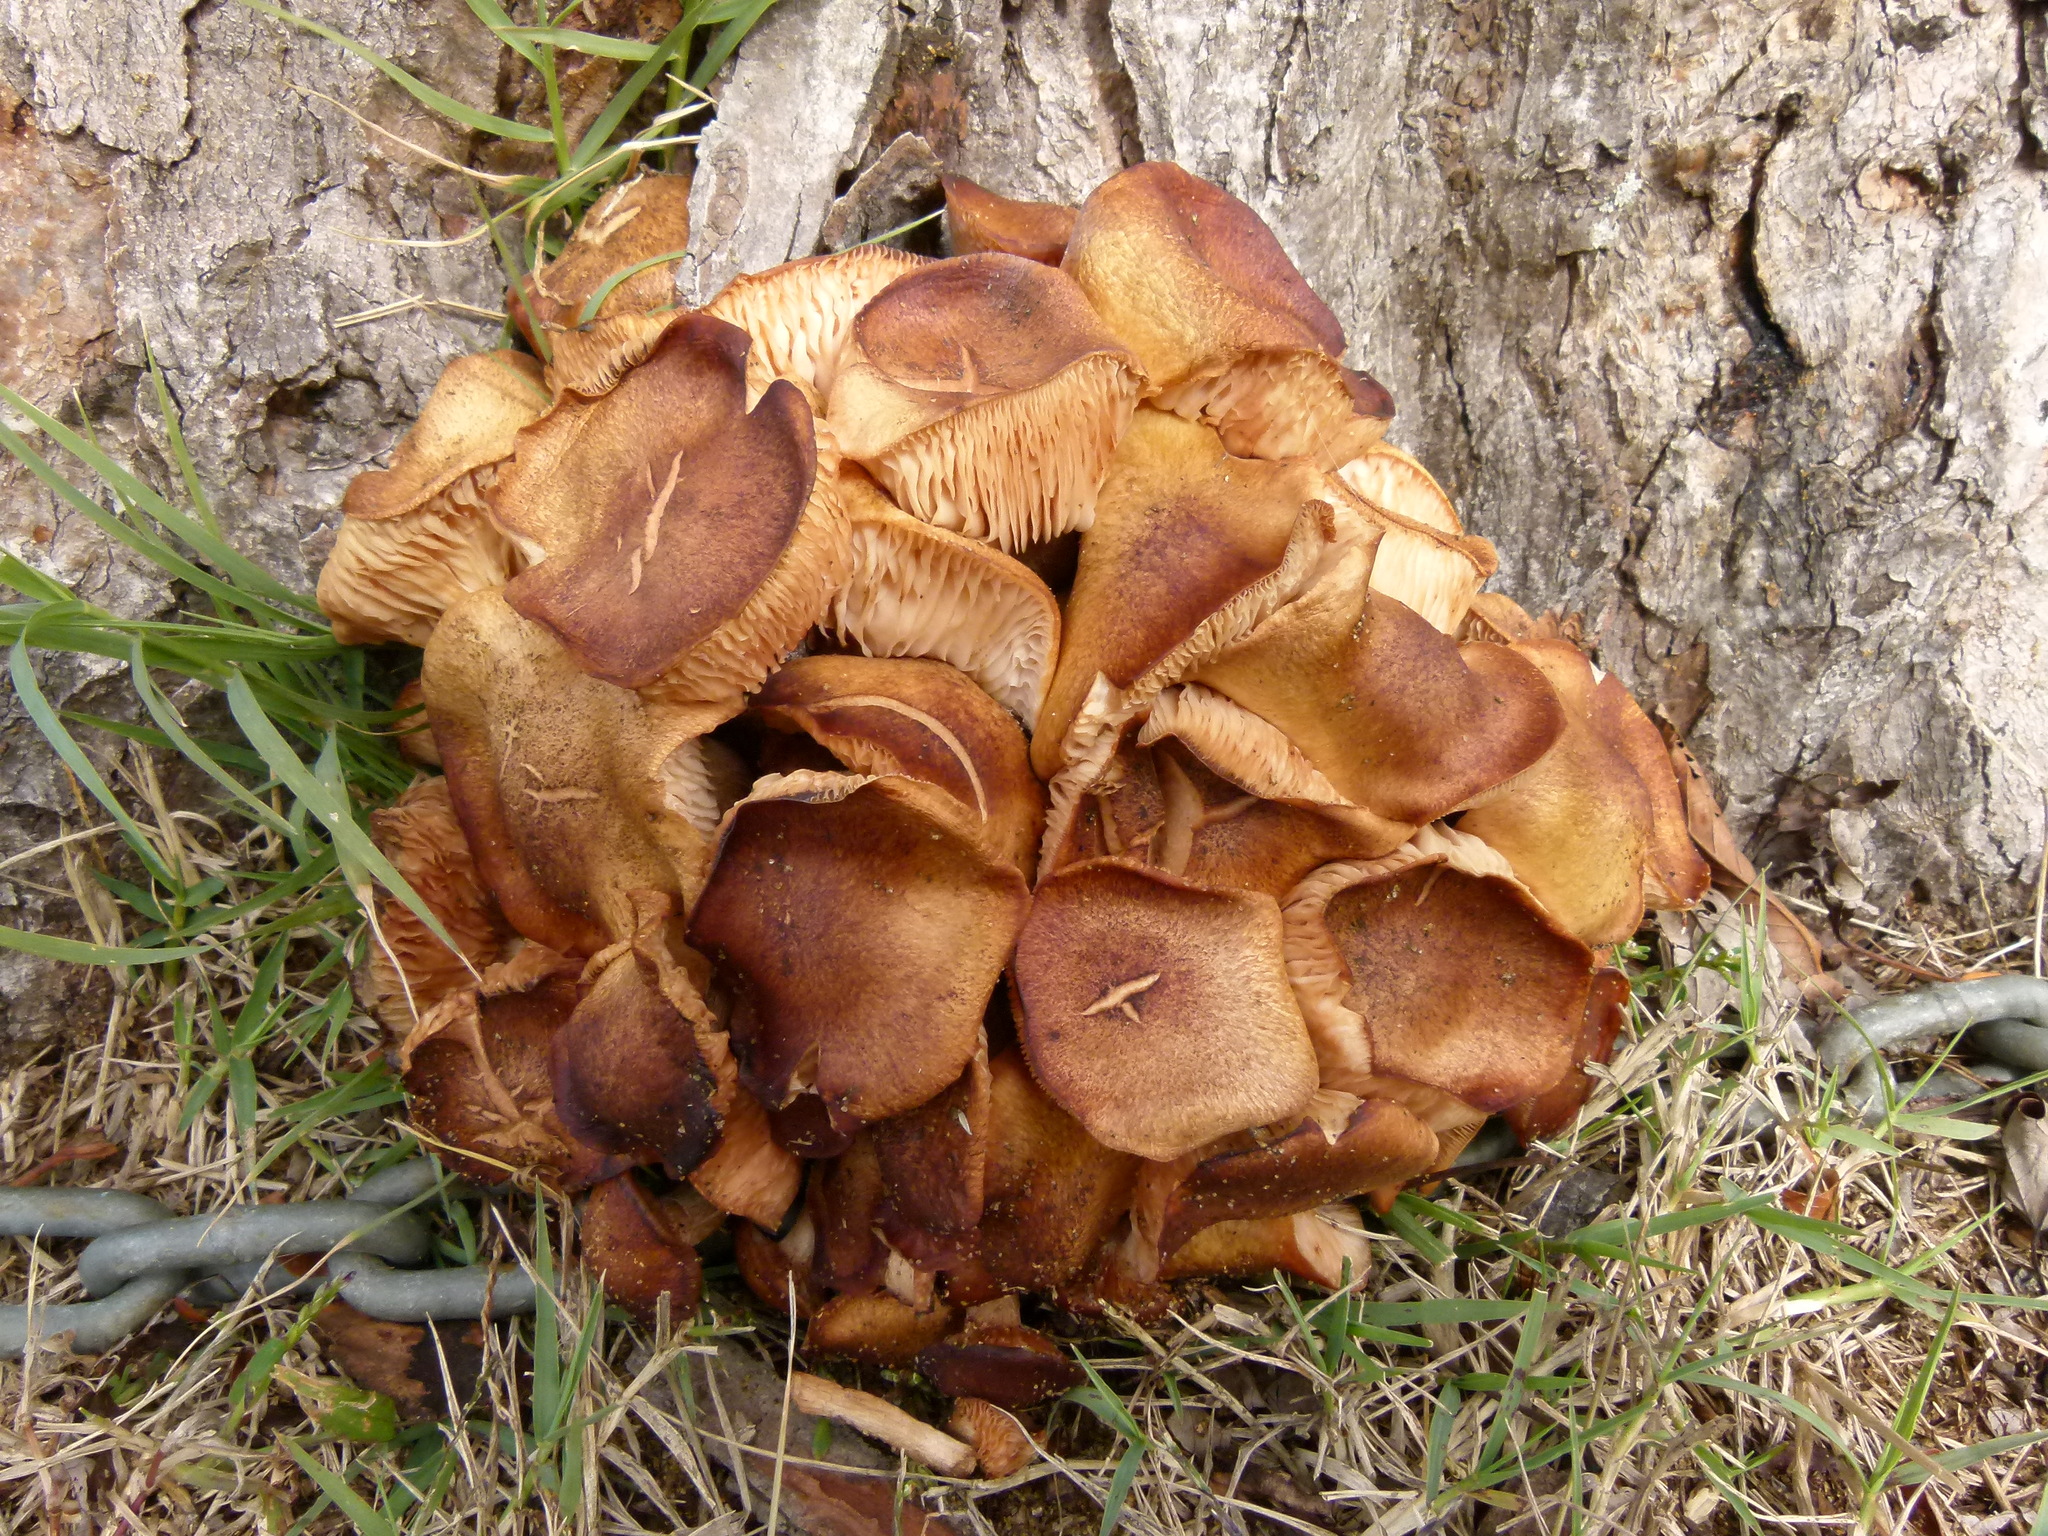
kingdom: Fungi
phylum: Basidiomycota
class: Agaricomycetes
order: Agaricales
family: Physalacriaceae
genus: Desarmillaria
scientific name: Desarmillaria caespitosa
